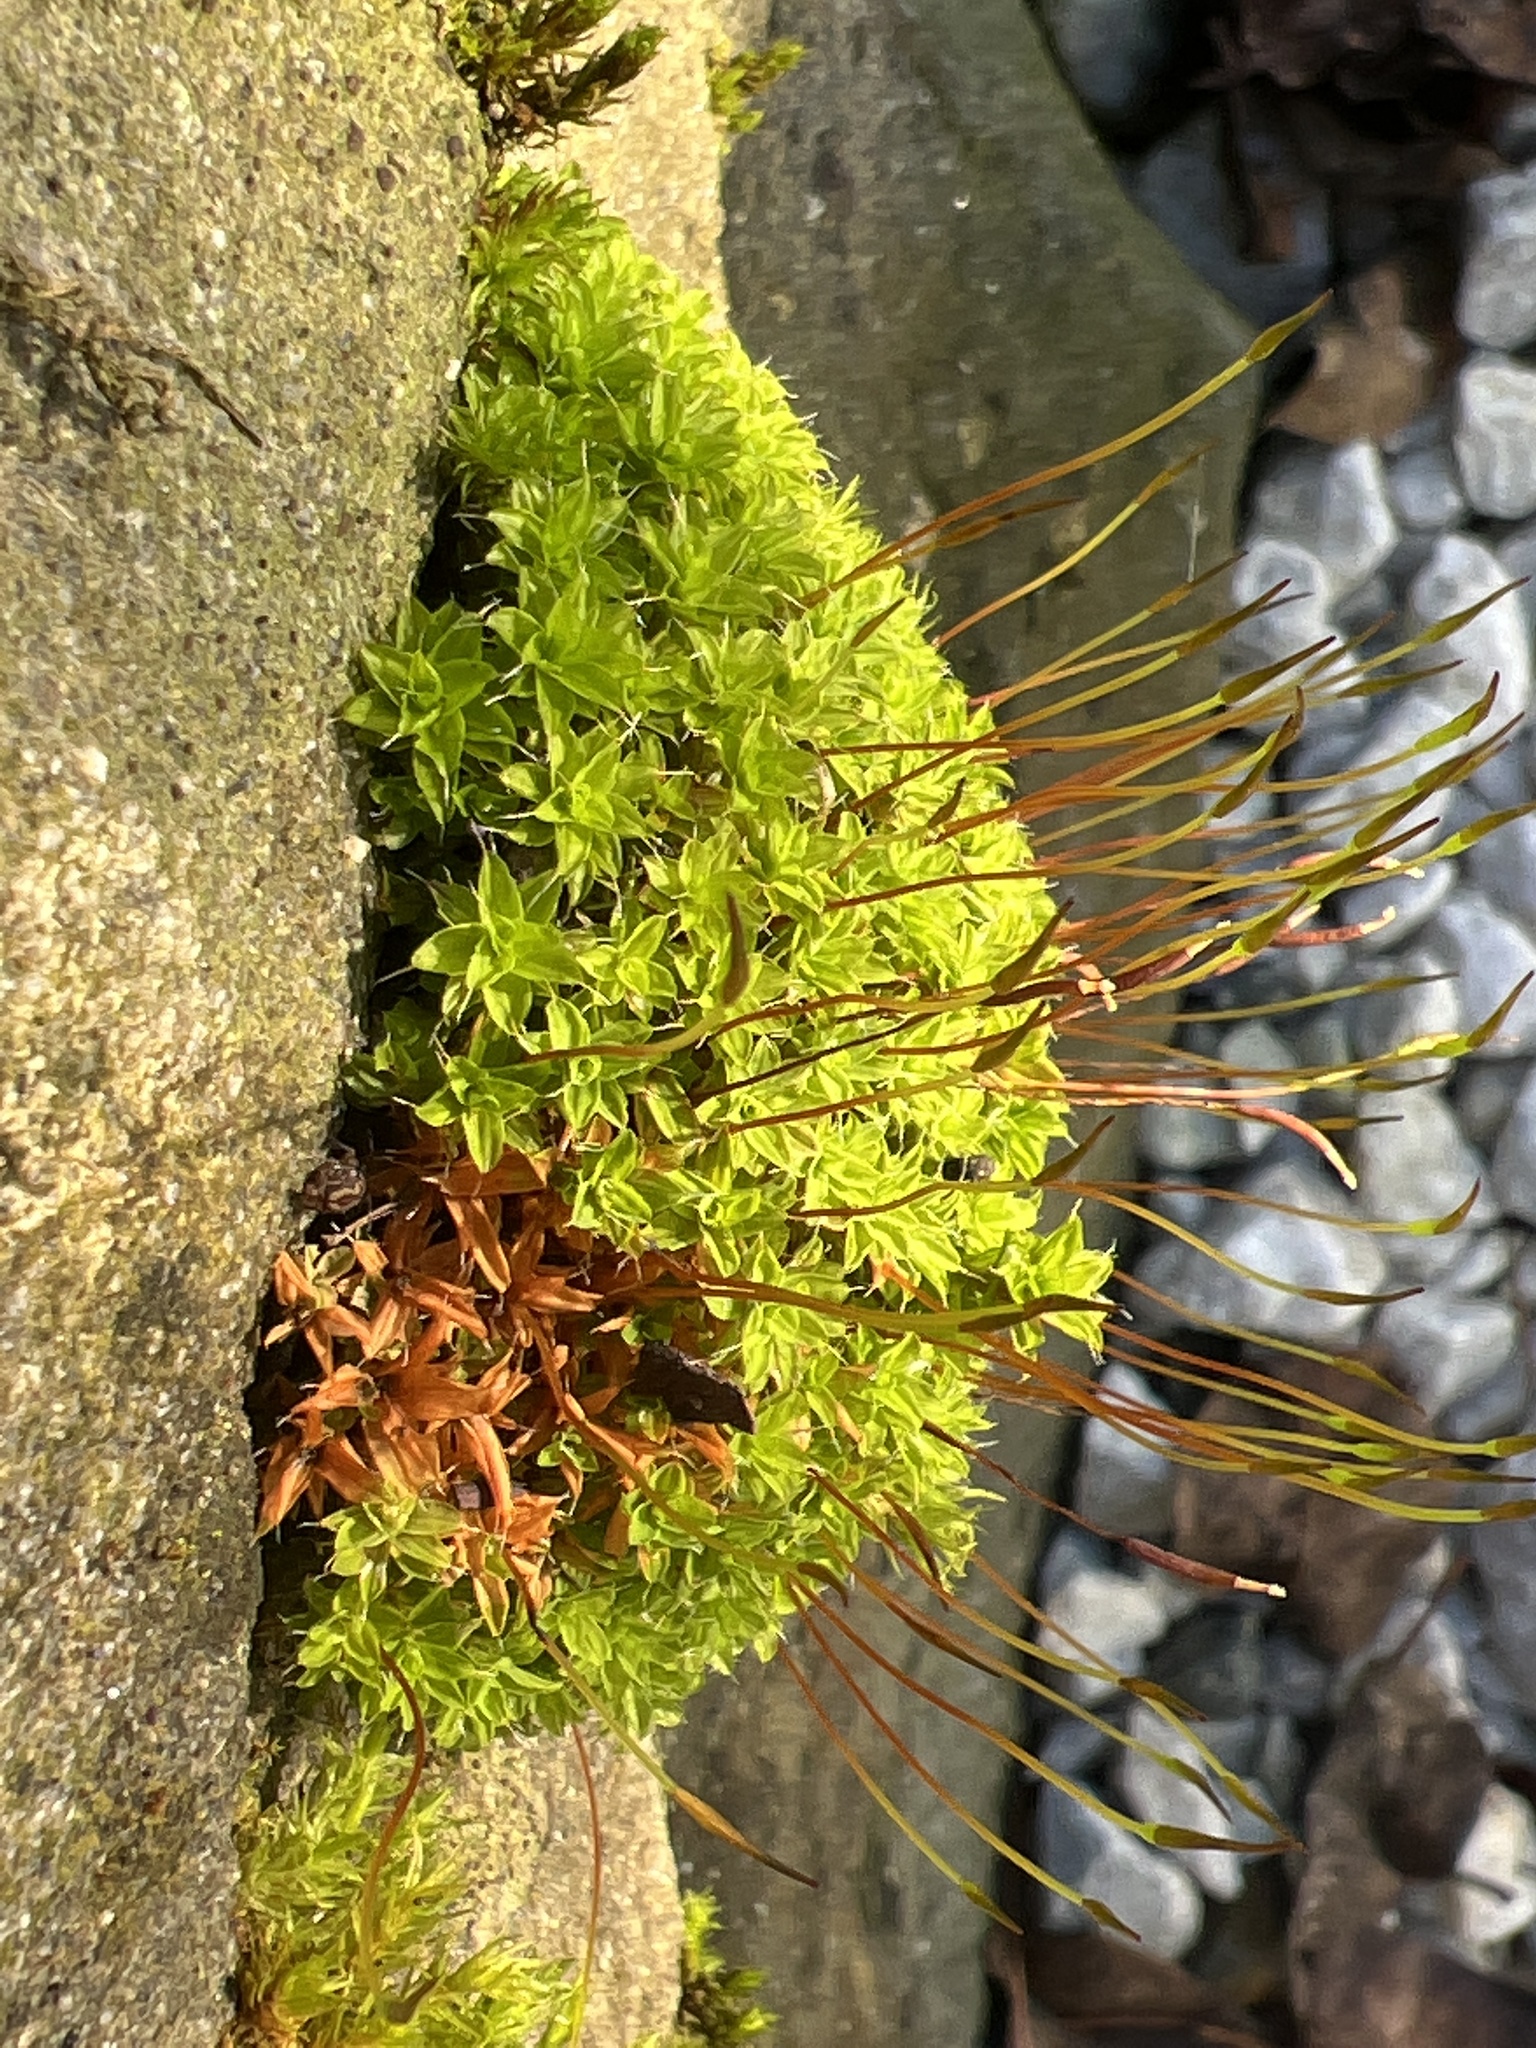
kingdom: Plantae
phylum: Bryophyta
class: Bryopsida
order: Pottiales
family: Pottiaceae
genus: Tortula
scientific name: Tortula muralis
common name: Wall screw-moss
